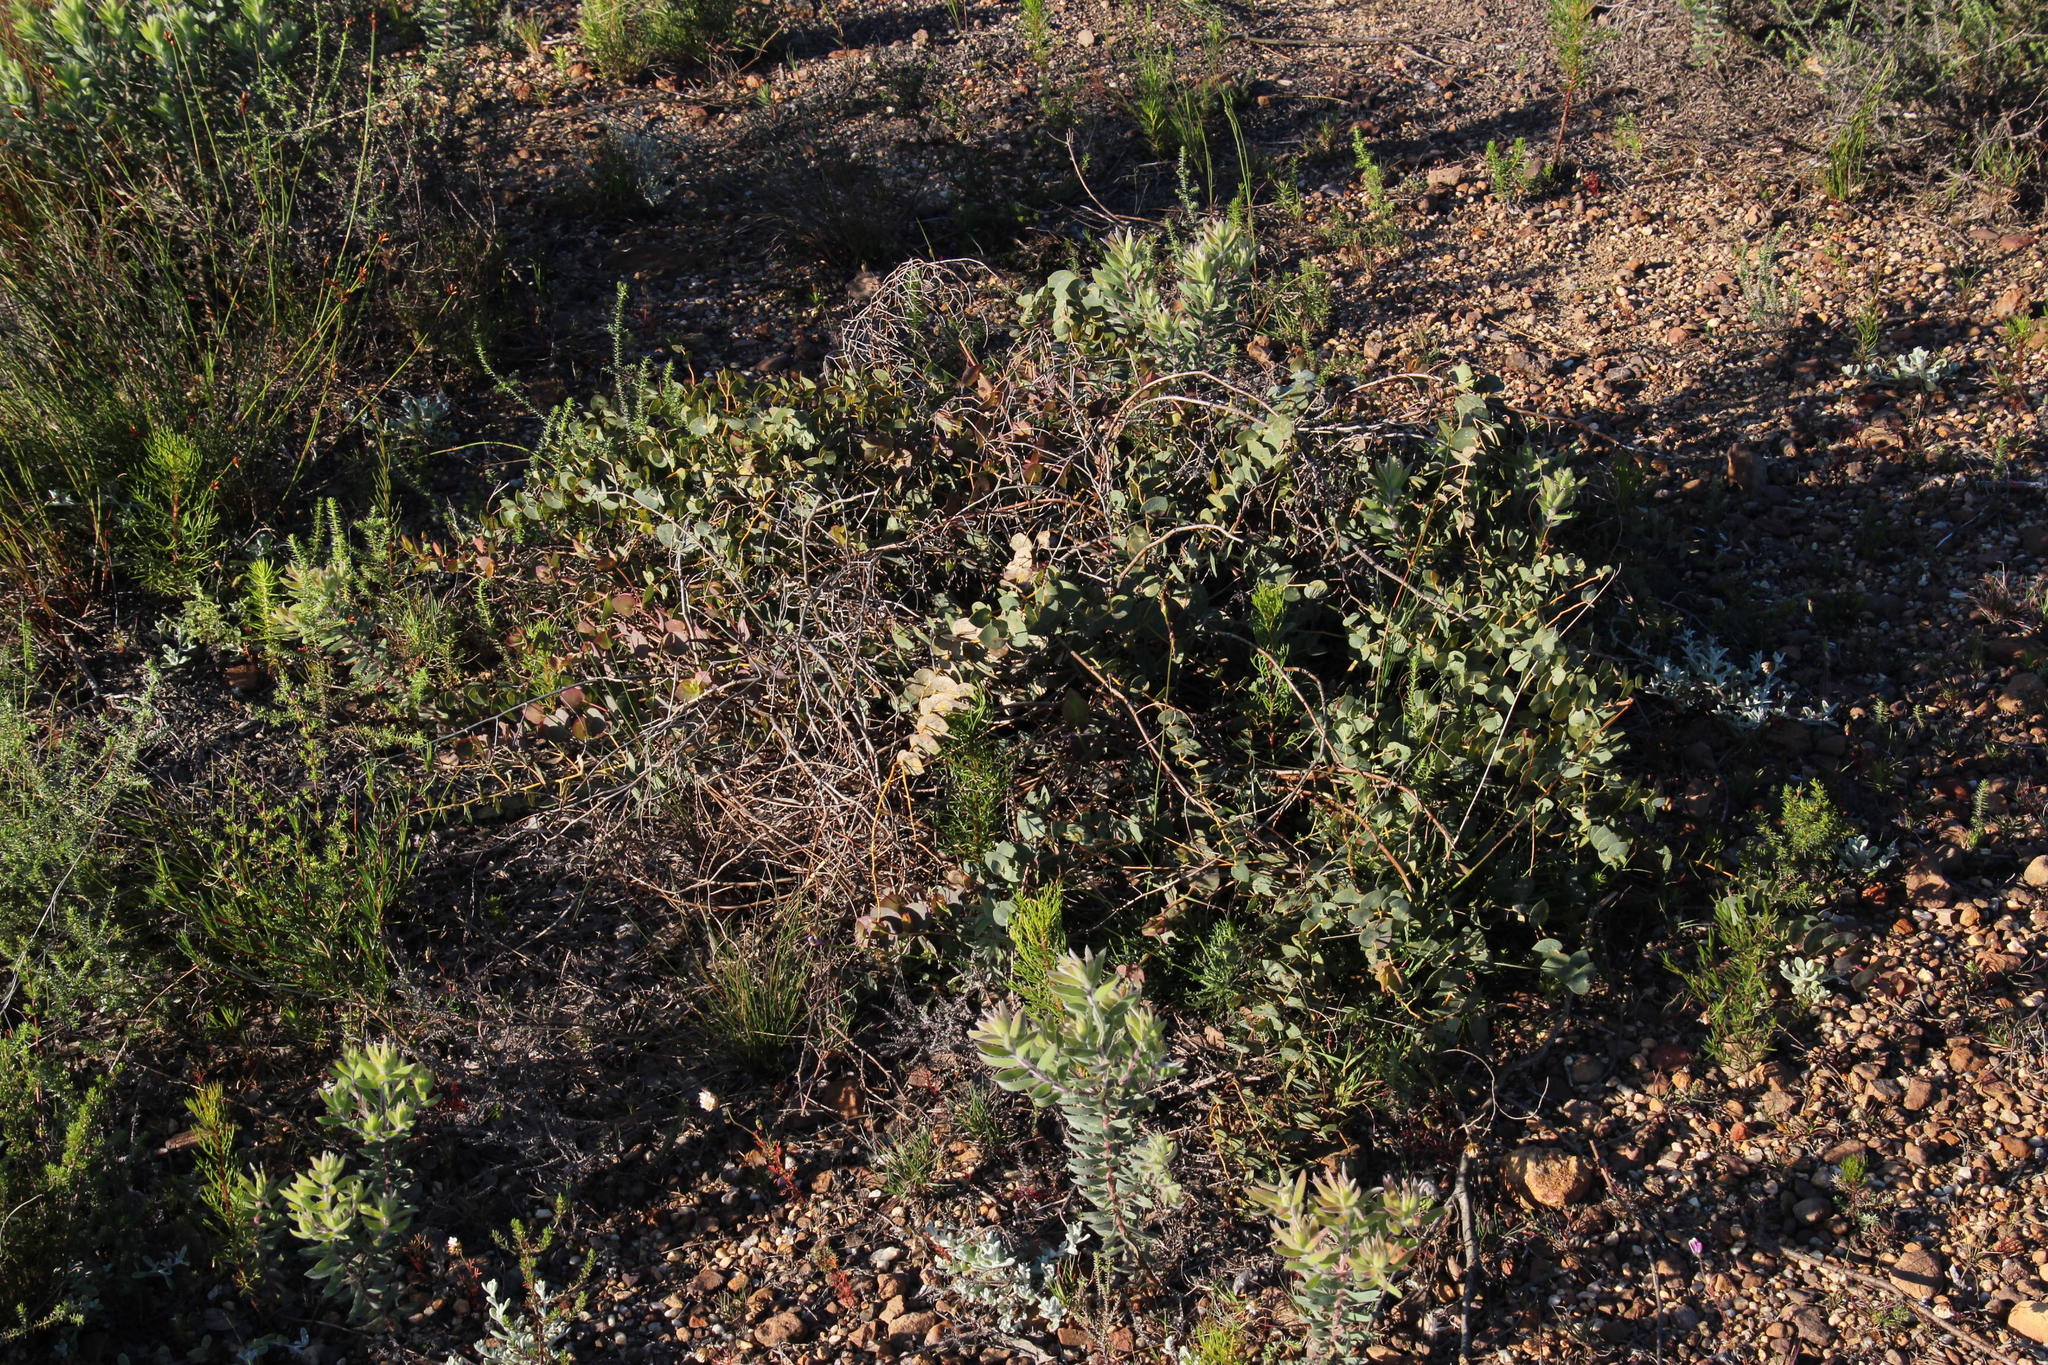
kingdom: Plantae
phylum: Tracheophyta
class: Magnoliopsida
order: Fabales
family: Fabaceae
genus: Rafnia
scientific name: Rafnia acuminata
